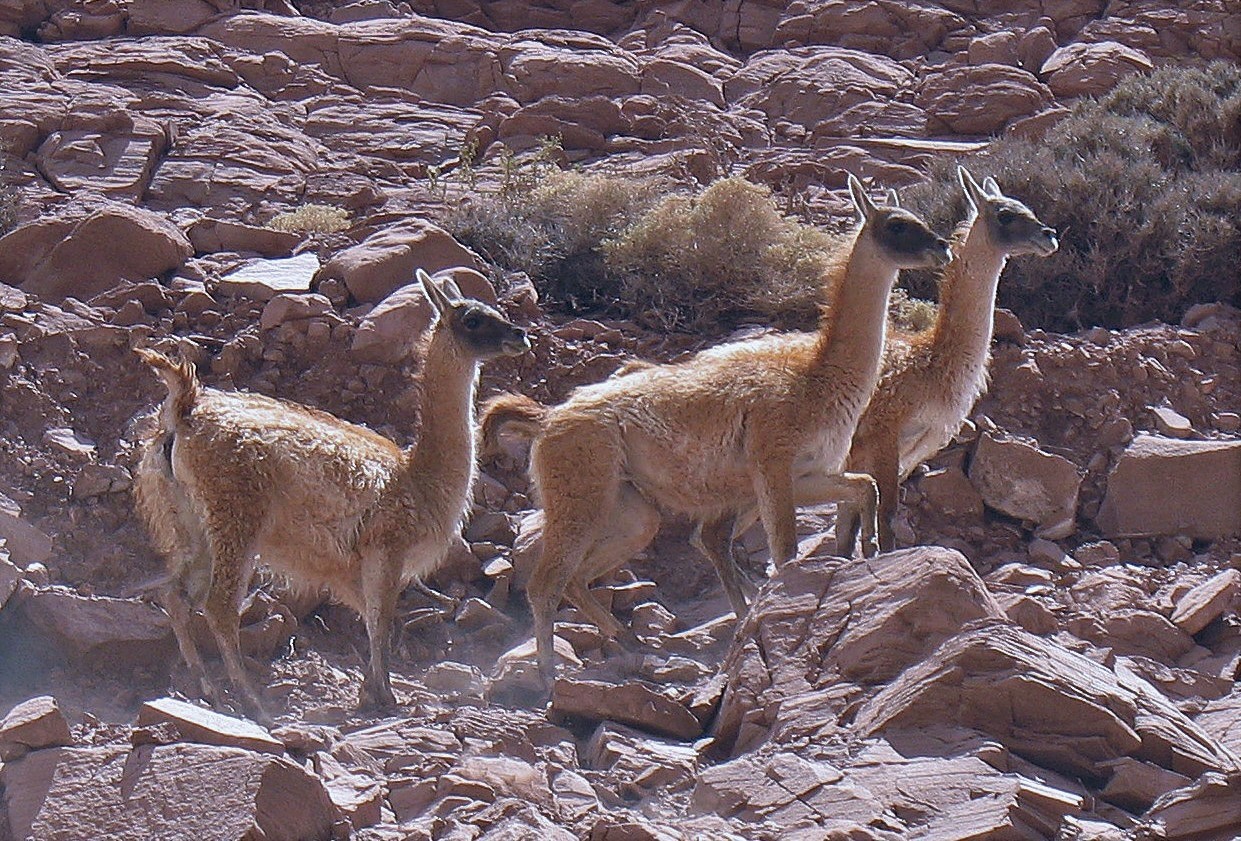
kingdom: Animalia
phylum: Chordata
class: Mammalia
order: Artiodactyla
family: Camelidae
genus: Lama
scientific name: Lama glama
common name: Llama
